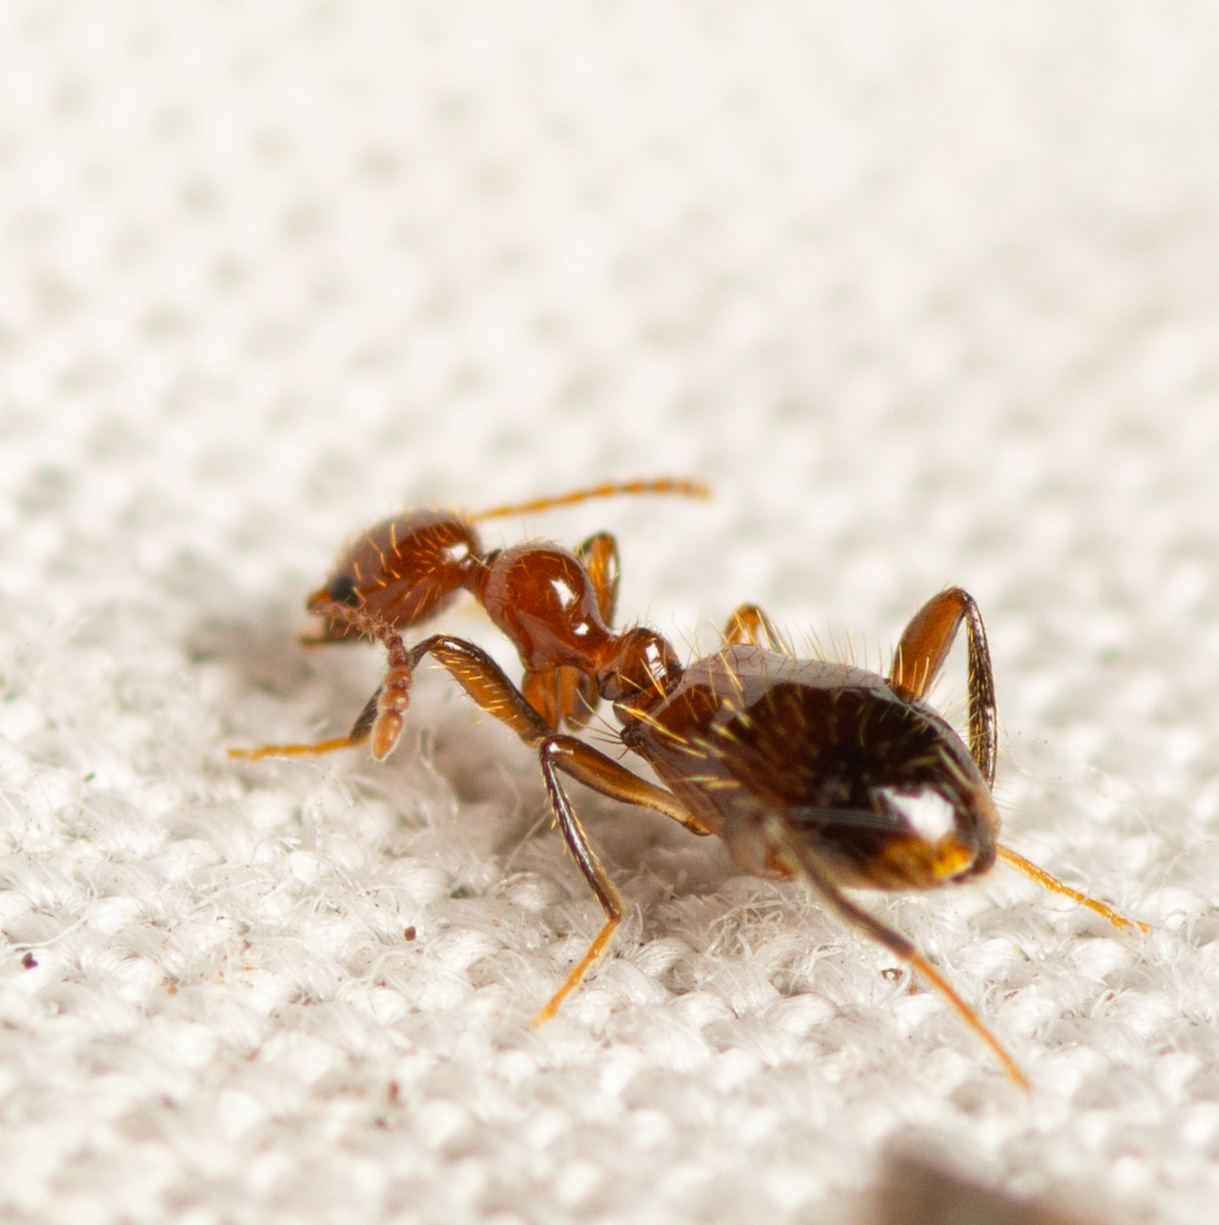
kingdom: Animalia
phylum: Arthropoda
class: Insecta
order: Coleoptera
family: Anthicidae
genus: Acanthinus
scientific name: Acanthinus
